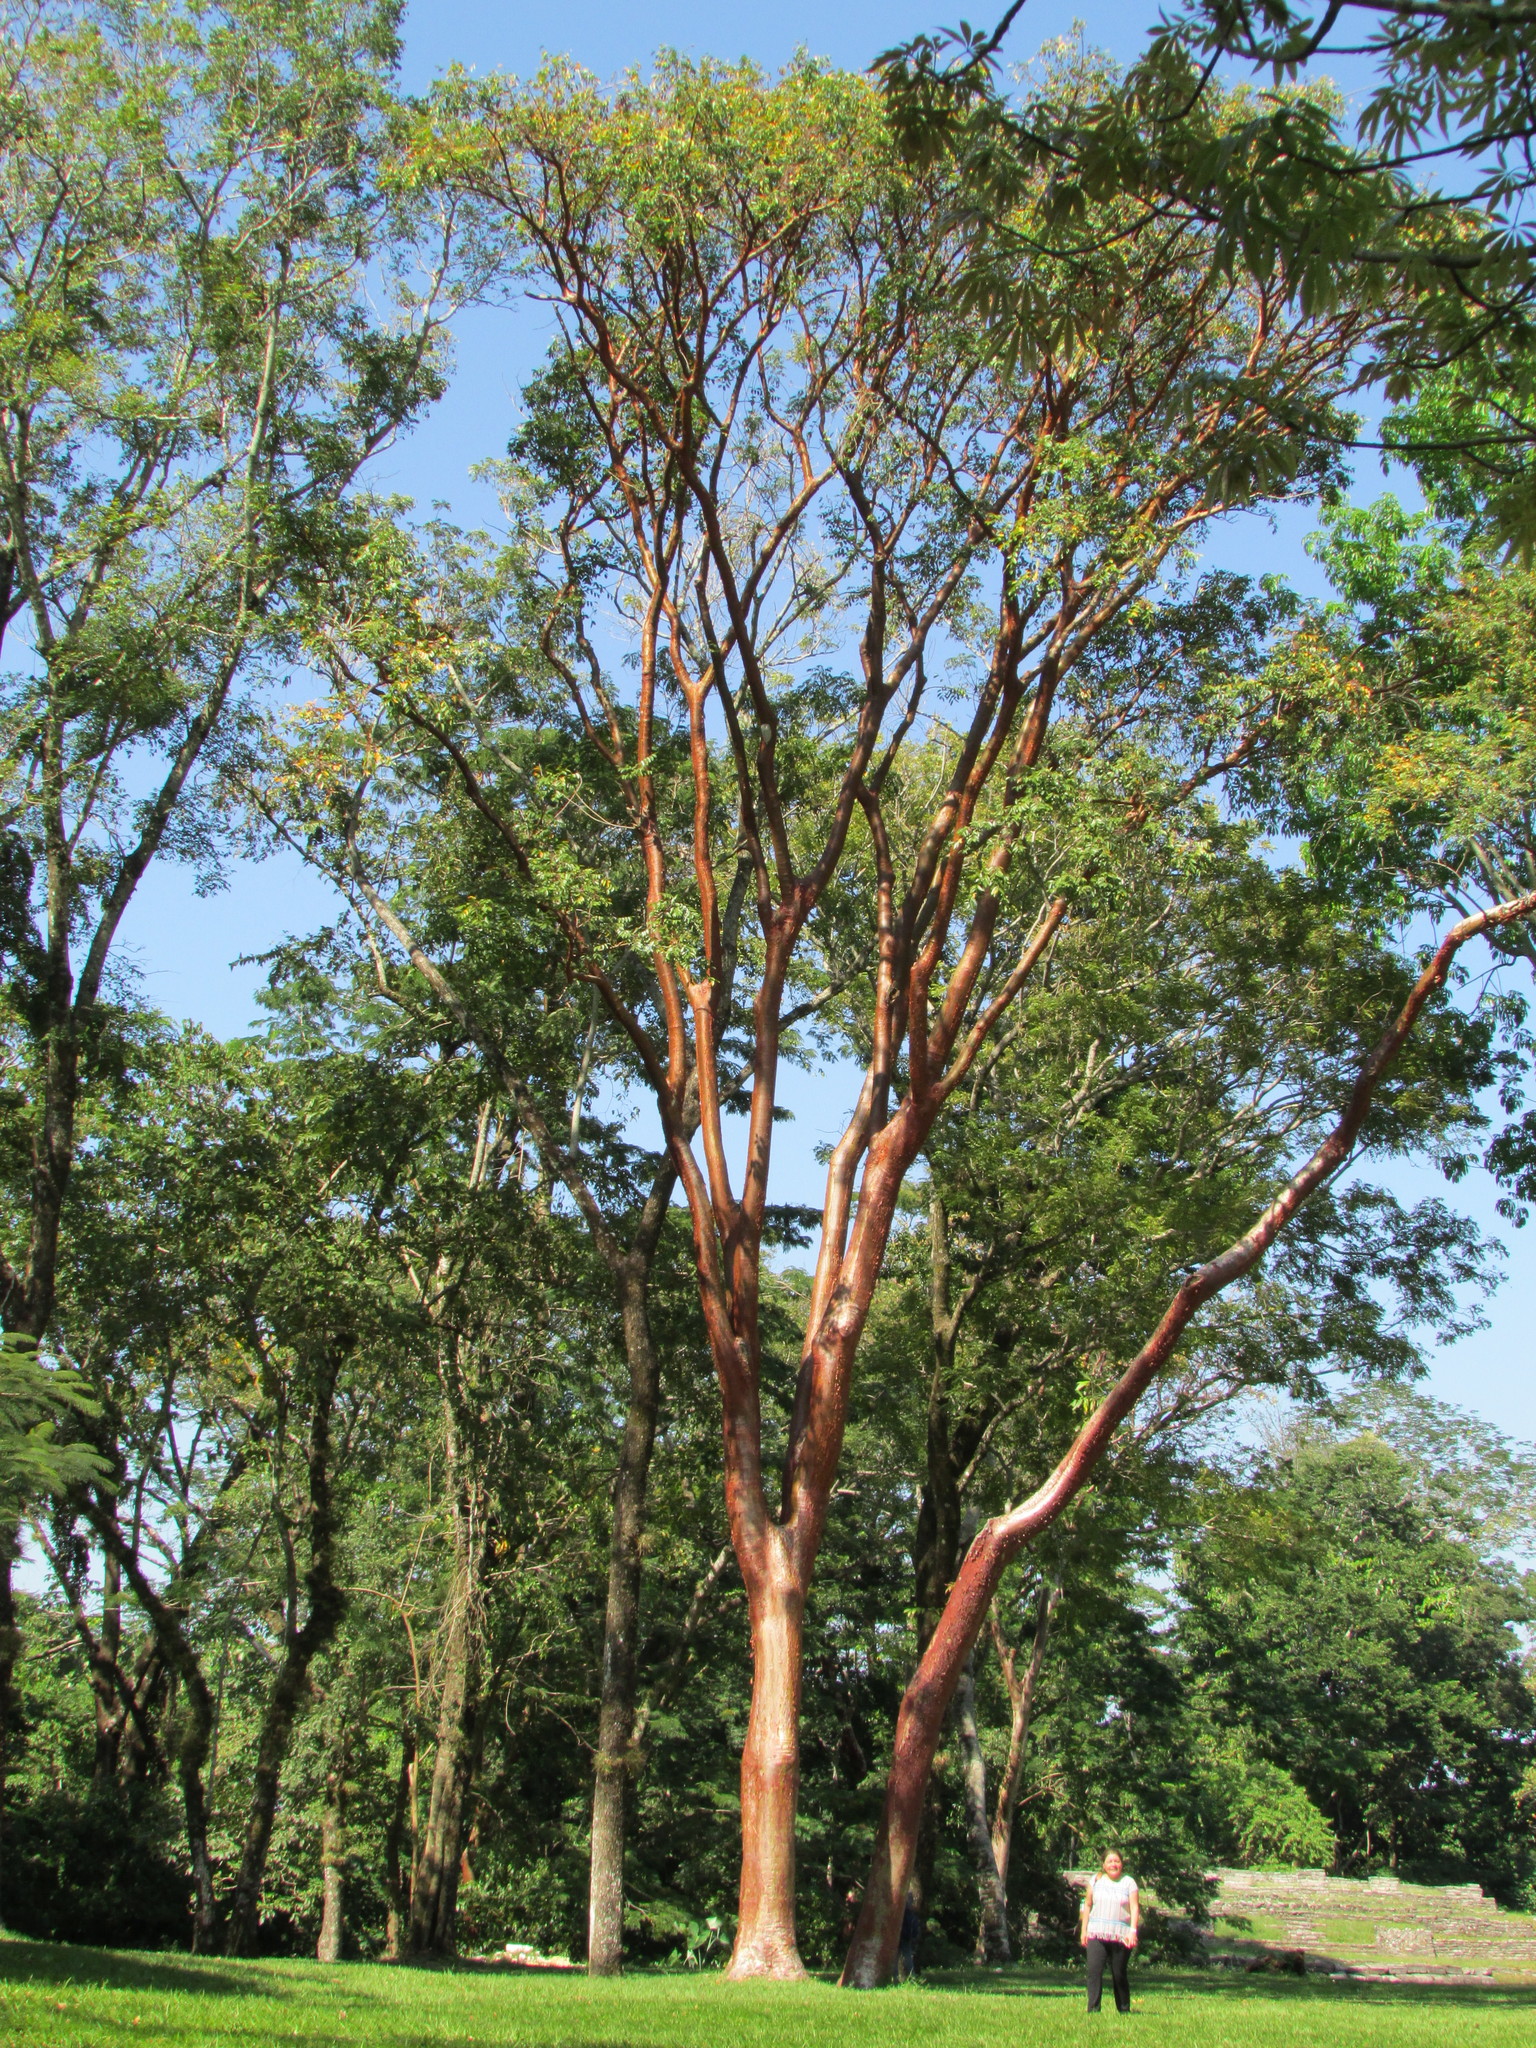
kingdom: Plantae
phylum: Tracheophyta
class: Magnoliopsida
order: Sapindales
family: Burseraceae
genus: Bursera
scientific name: Bursera simaruba
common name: Turpentine tree
